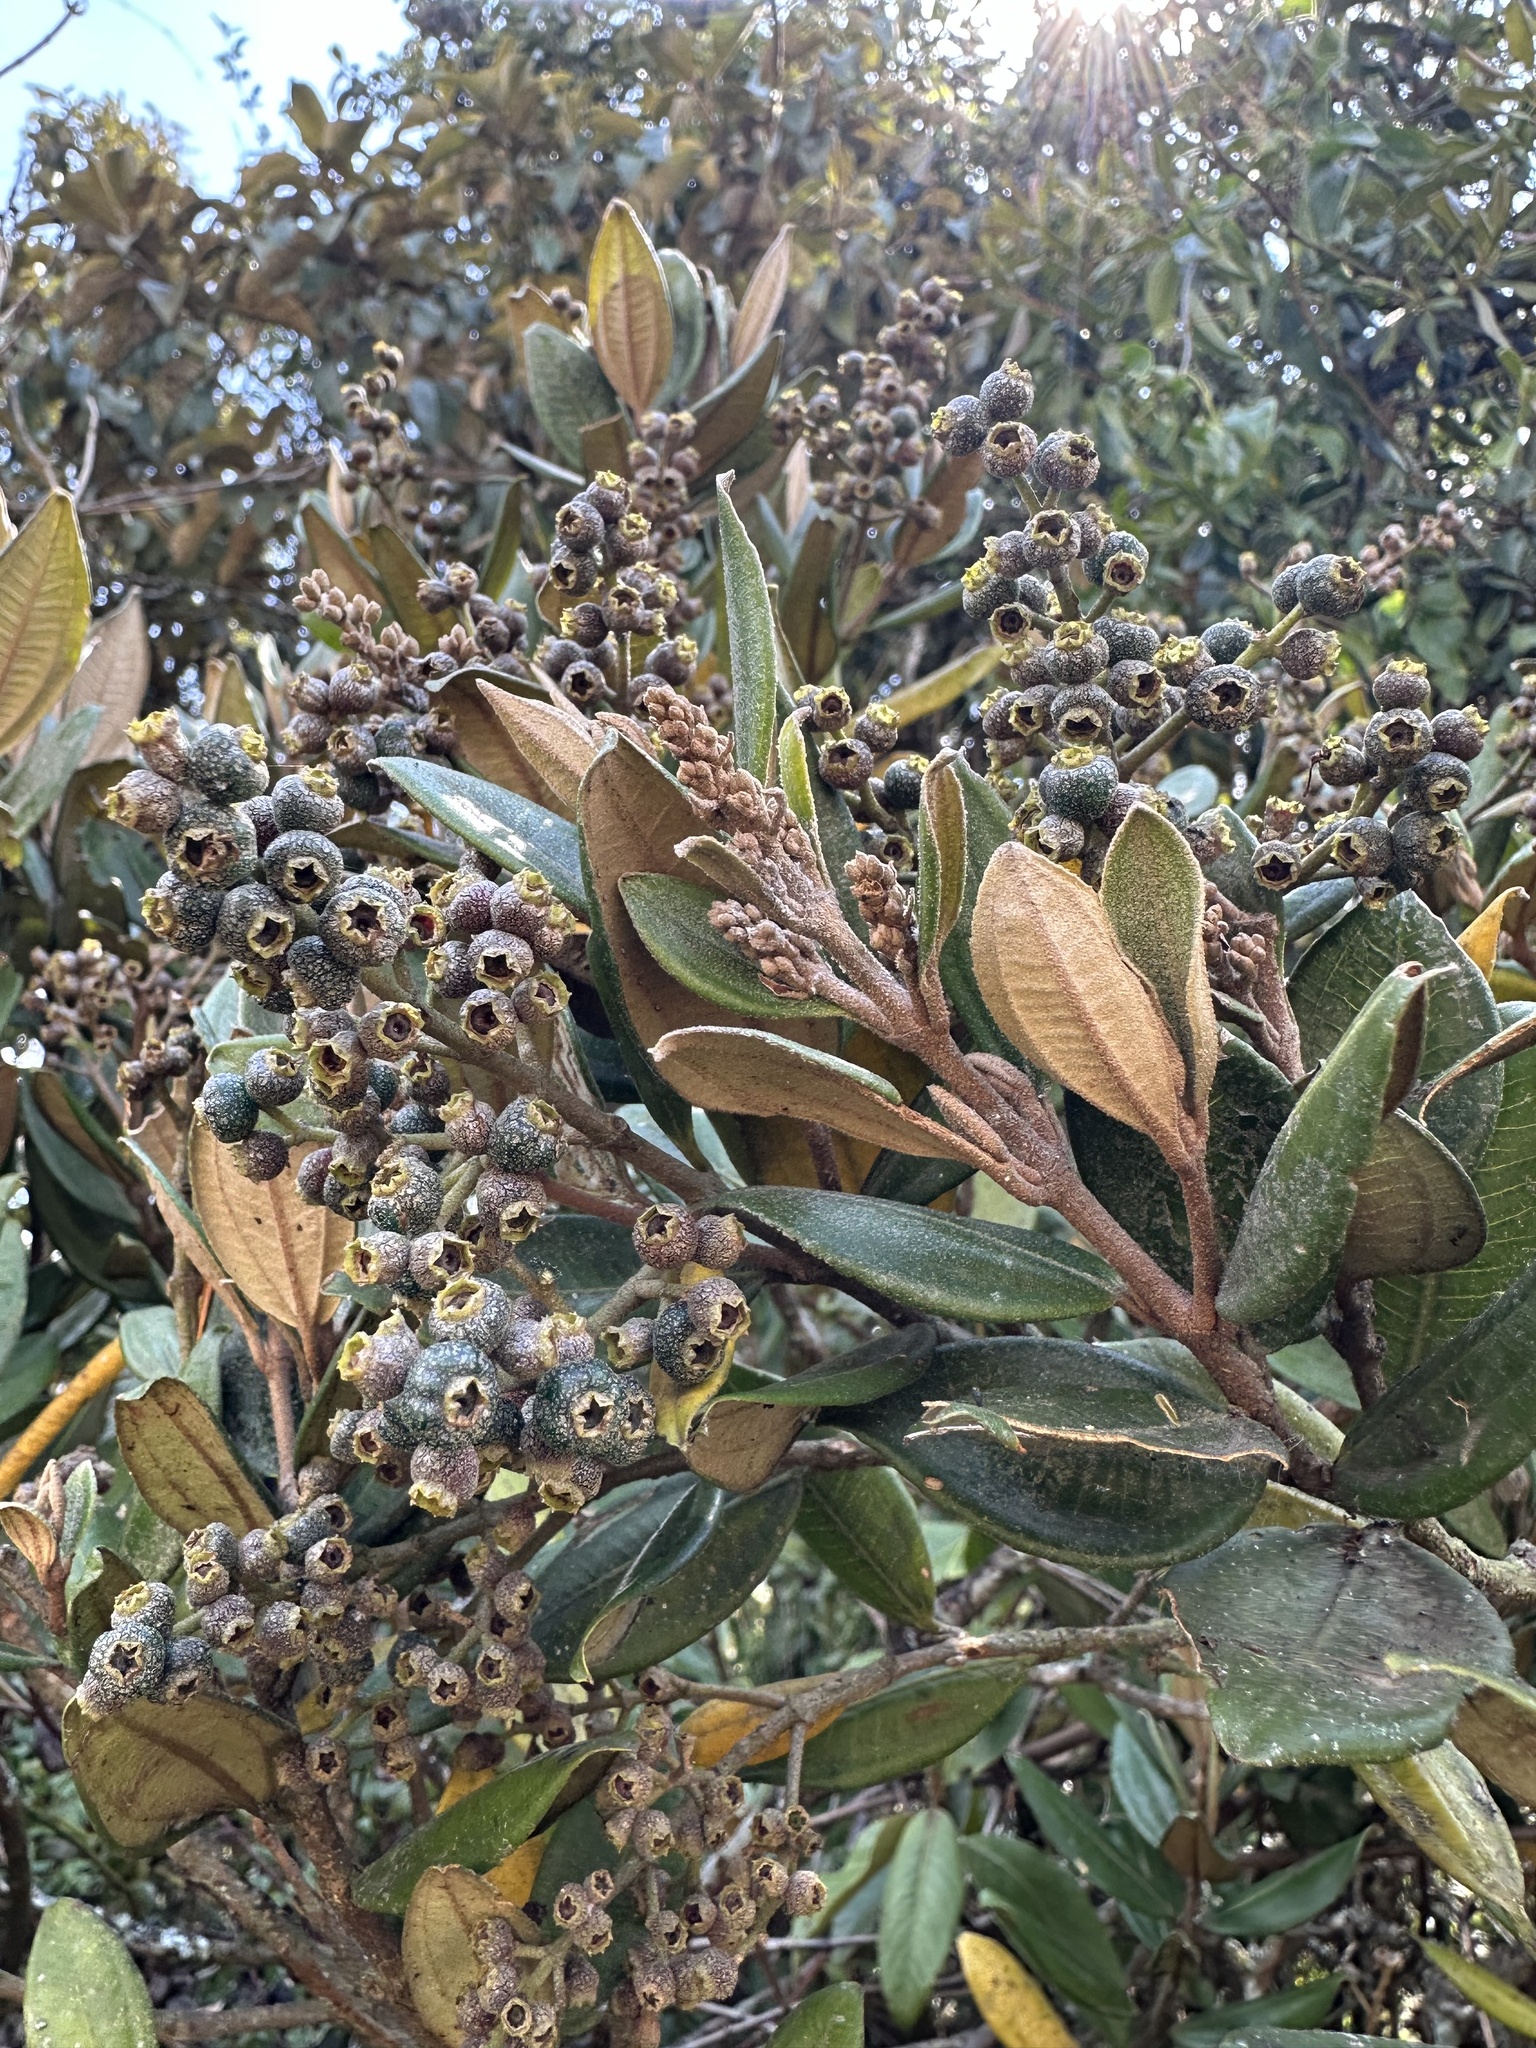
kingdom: Plantae
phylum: Tracheophyta
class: Magnoliopsida
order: Myrtales
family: Melastomataceae
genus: Miconia
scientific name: Miconia squamulosa
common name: Squamulose maya
